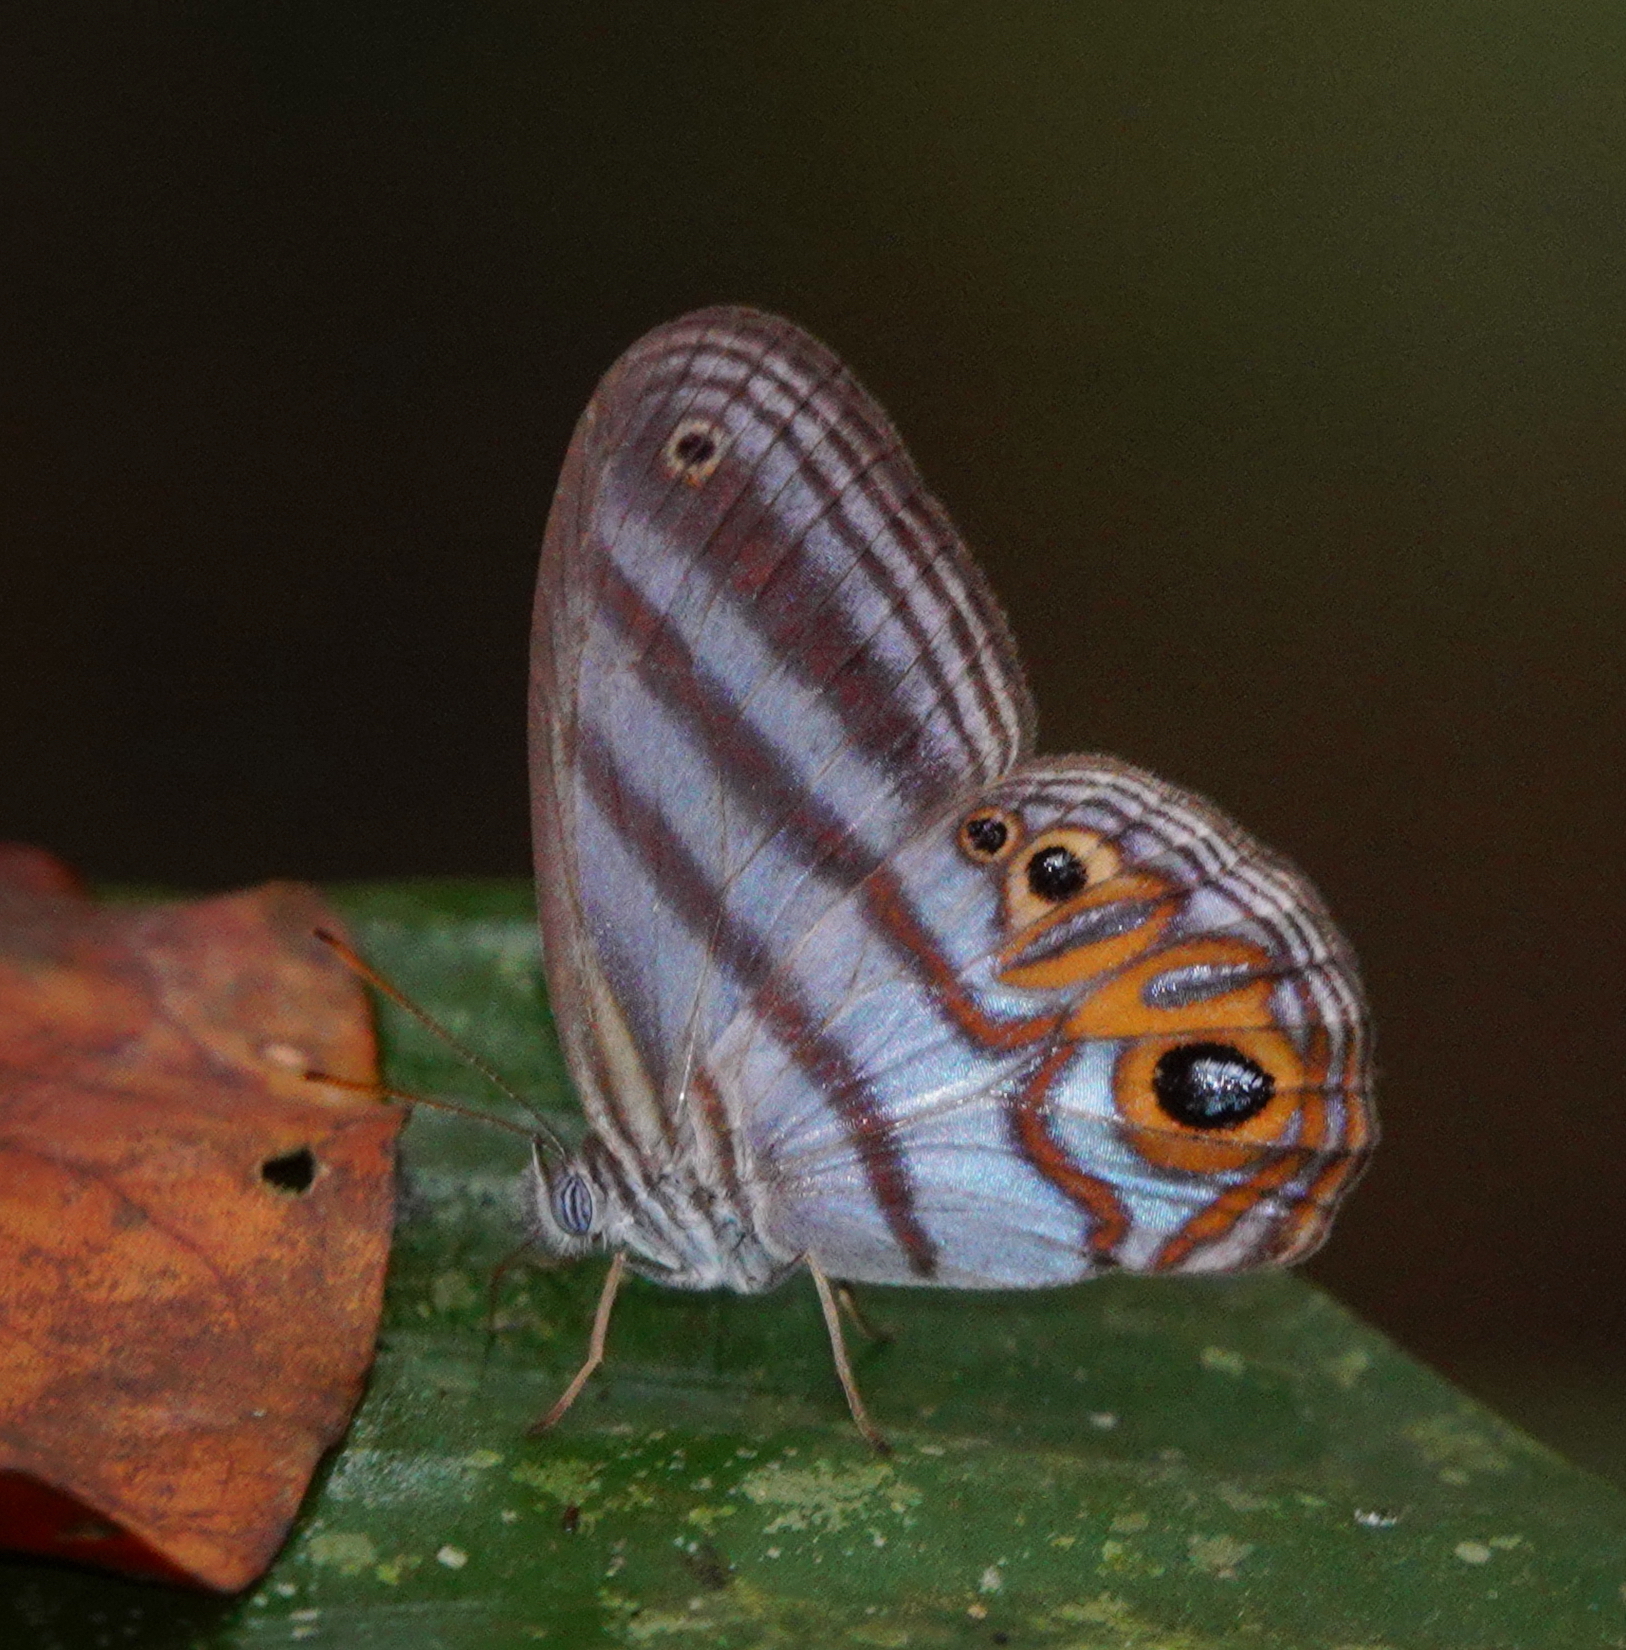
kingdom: Animalia
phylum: Arthropoda
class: Insecta
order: Lepidoptera
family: Nymphalidae
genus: Pseudeuptychia
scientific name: Pseudeuptychia
